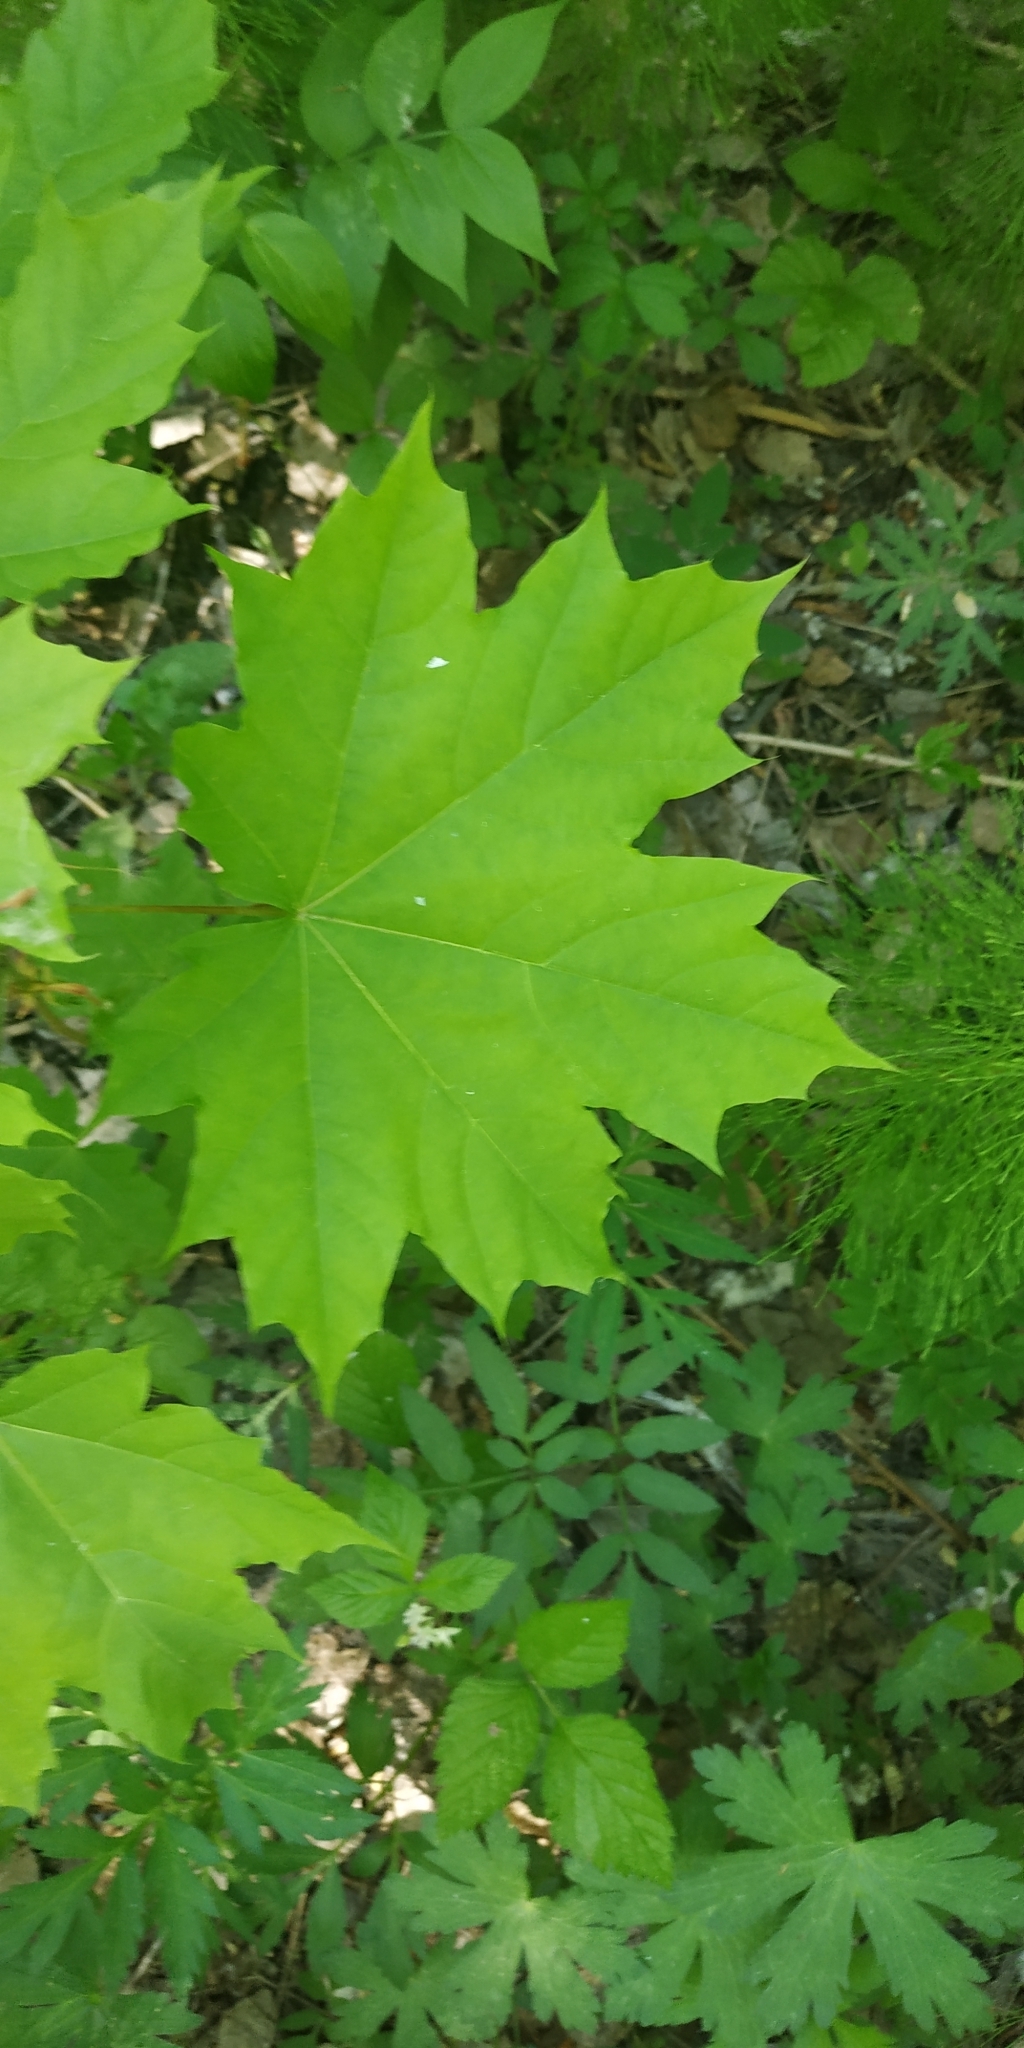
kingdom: Plantae
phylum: Tracheophyta
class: Magnoliopsida
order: Sapindales
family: Sapindaceae
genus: Acer
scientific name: Acer platanoides
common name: Norway maple
